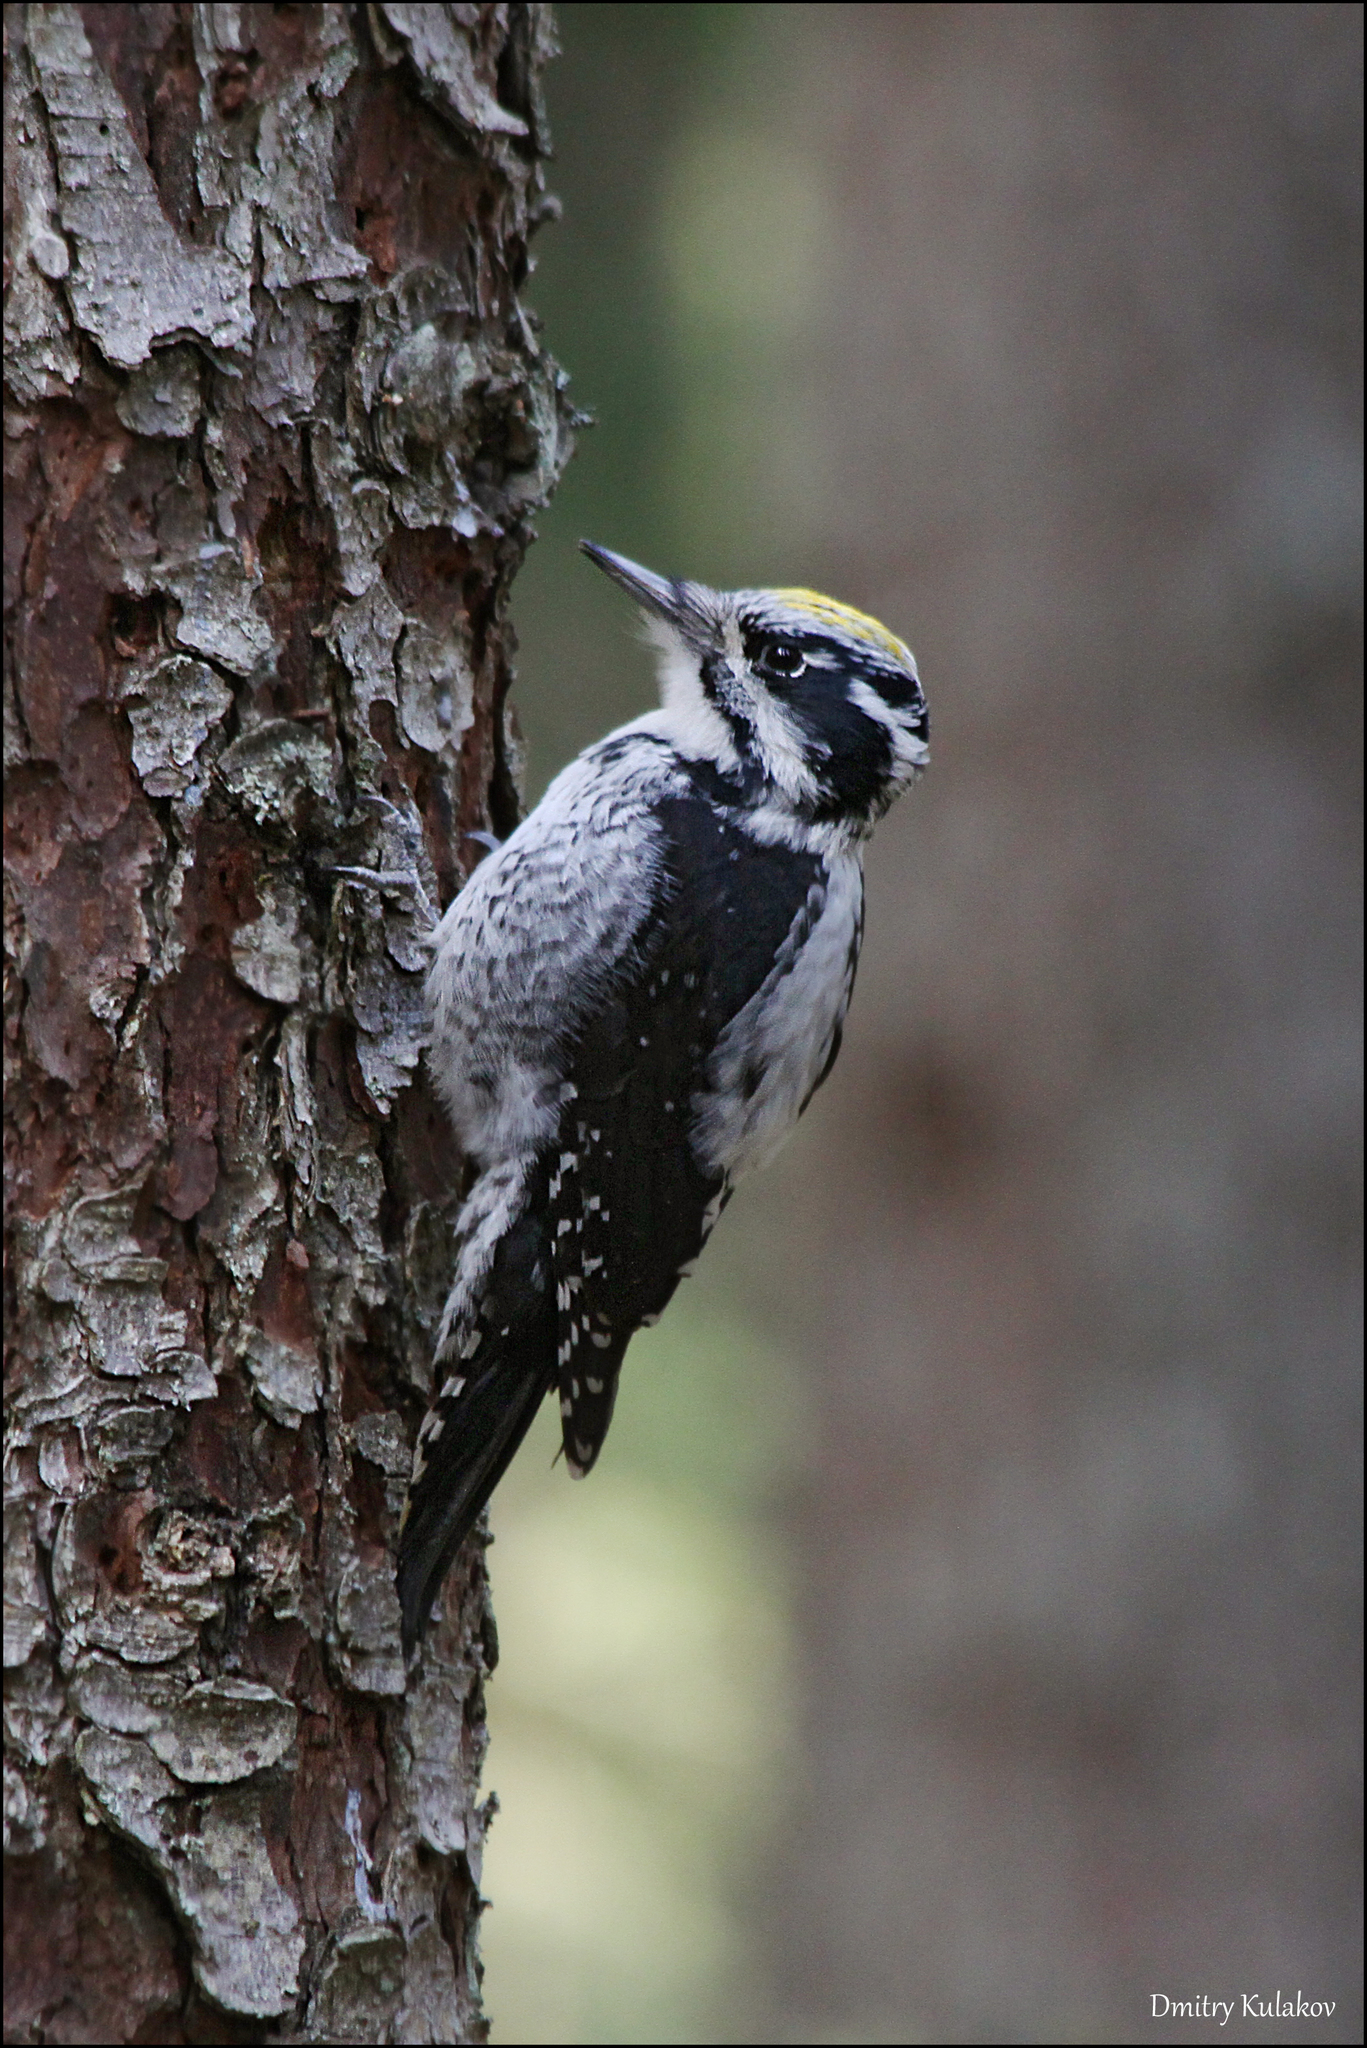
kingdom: Animalia
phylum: Chordata
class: Aves
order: Piciformes
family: Picidae
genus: Picoides
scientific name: Picoides tridactylus
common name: Eurasian three-toed woodpecker
